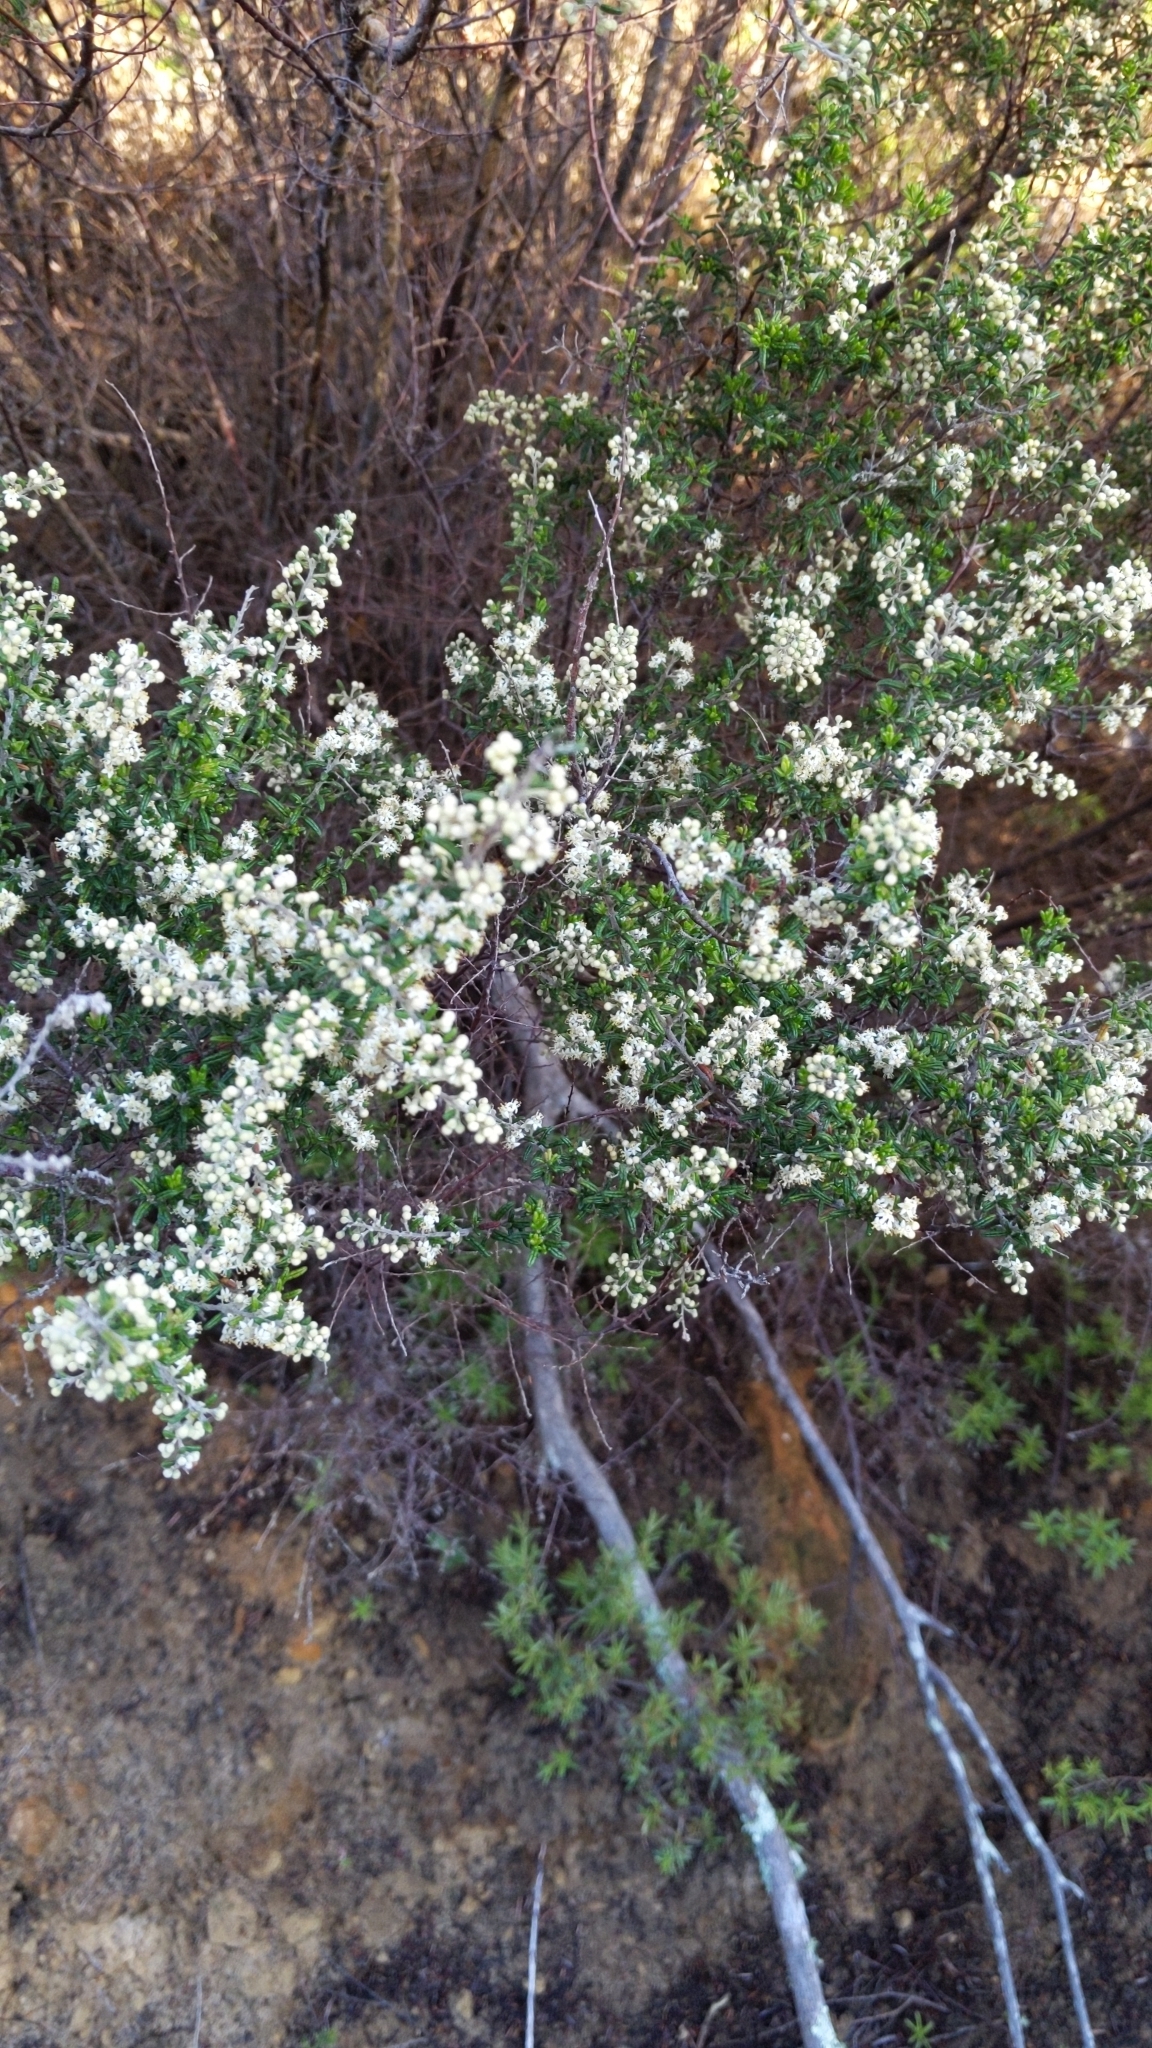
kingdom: Plantae
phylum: Tracheophyta
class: Magnoliopsida
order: Rosales
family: Rhamnaceae
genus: Pomaderris
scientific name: Pomaderris amoena
